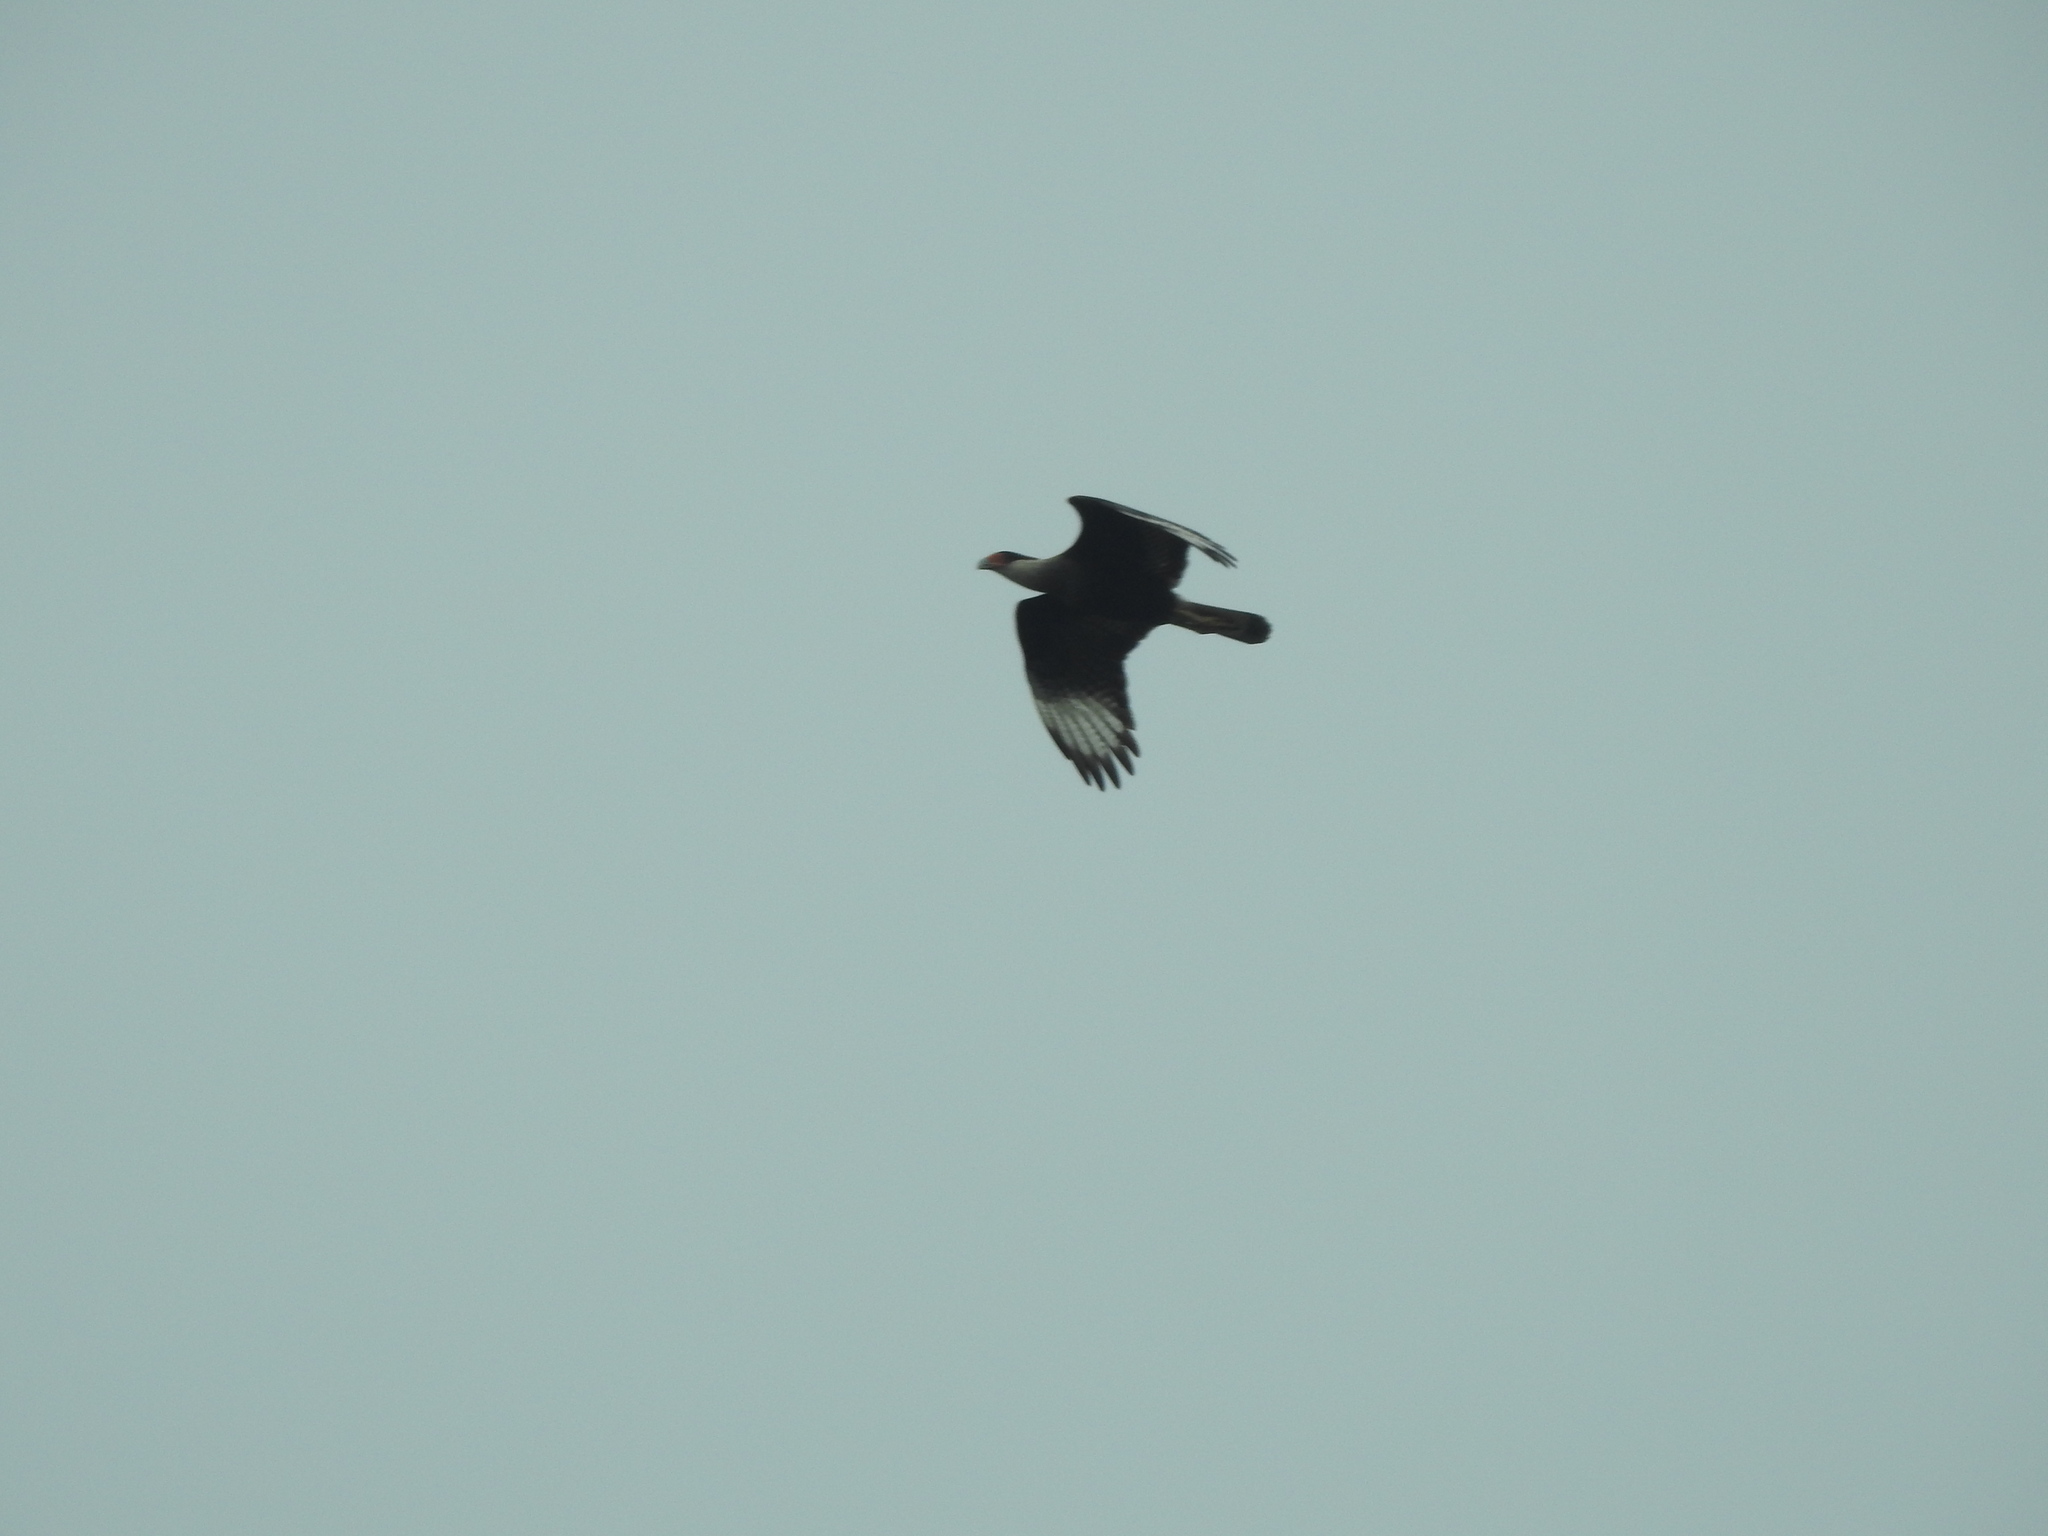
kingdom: Animalia
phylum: Chordata
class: Aves
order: Falconiformes
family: Falconidae
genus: Caracara
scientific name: Caracara plancus
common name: Southern caracara
